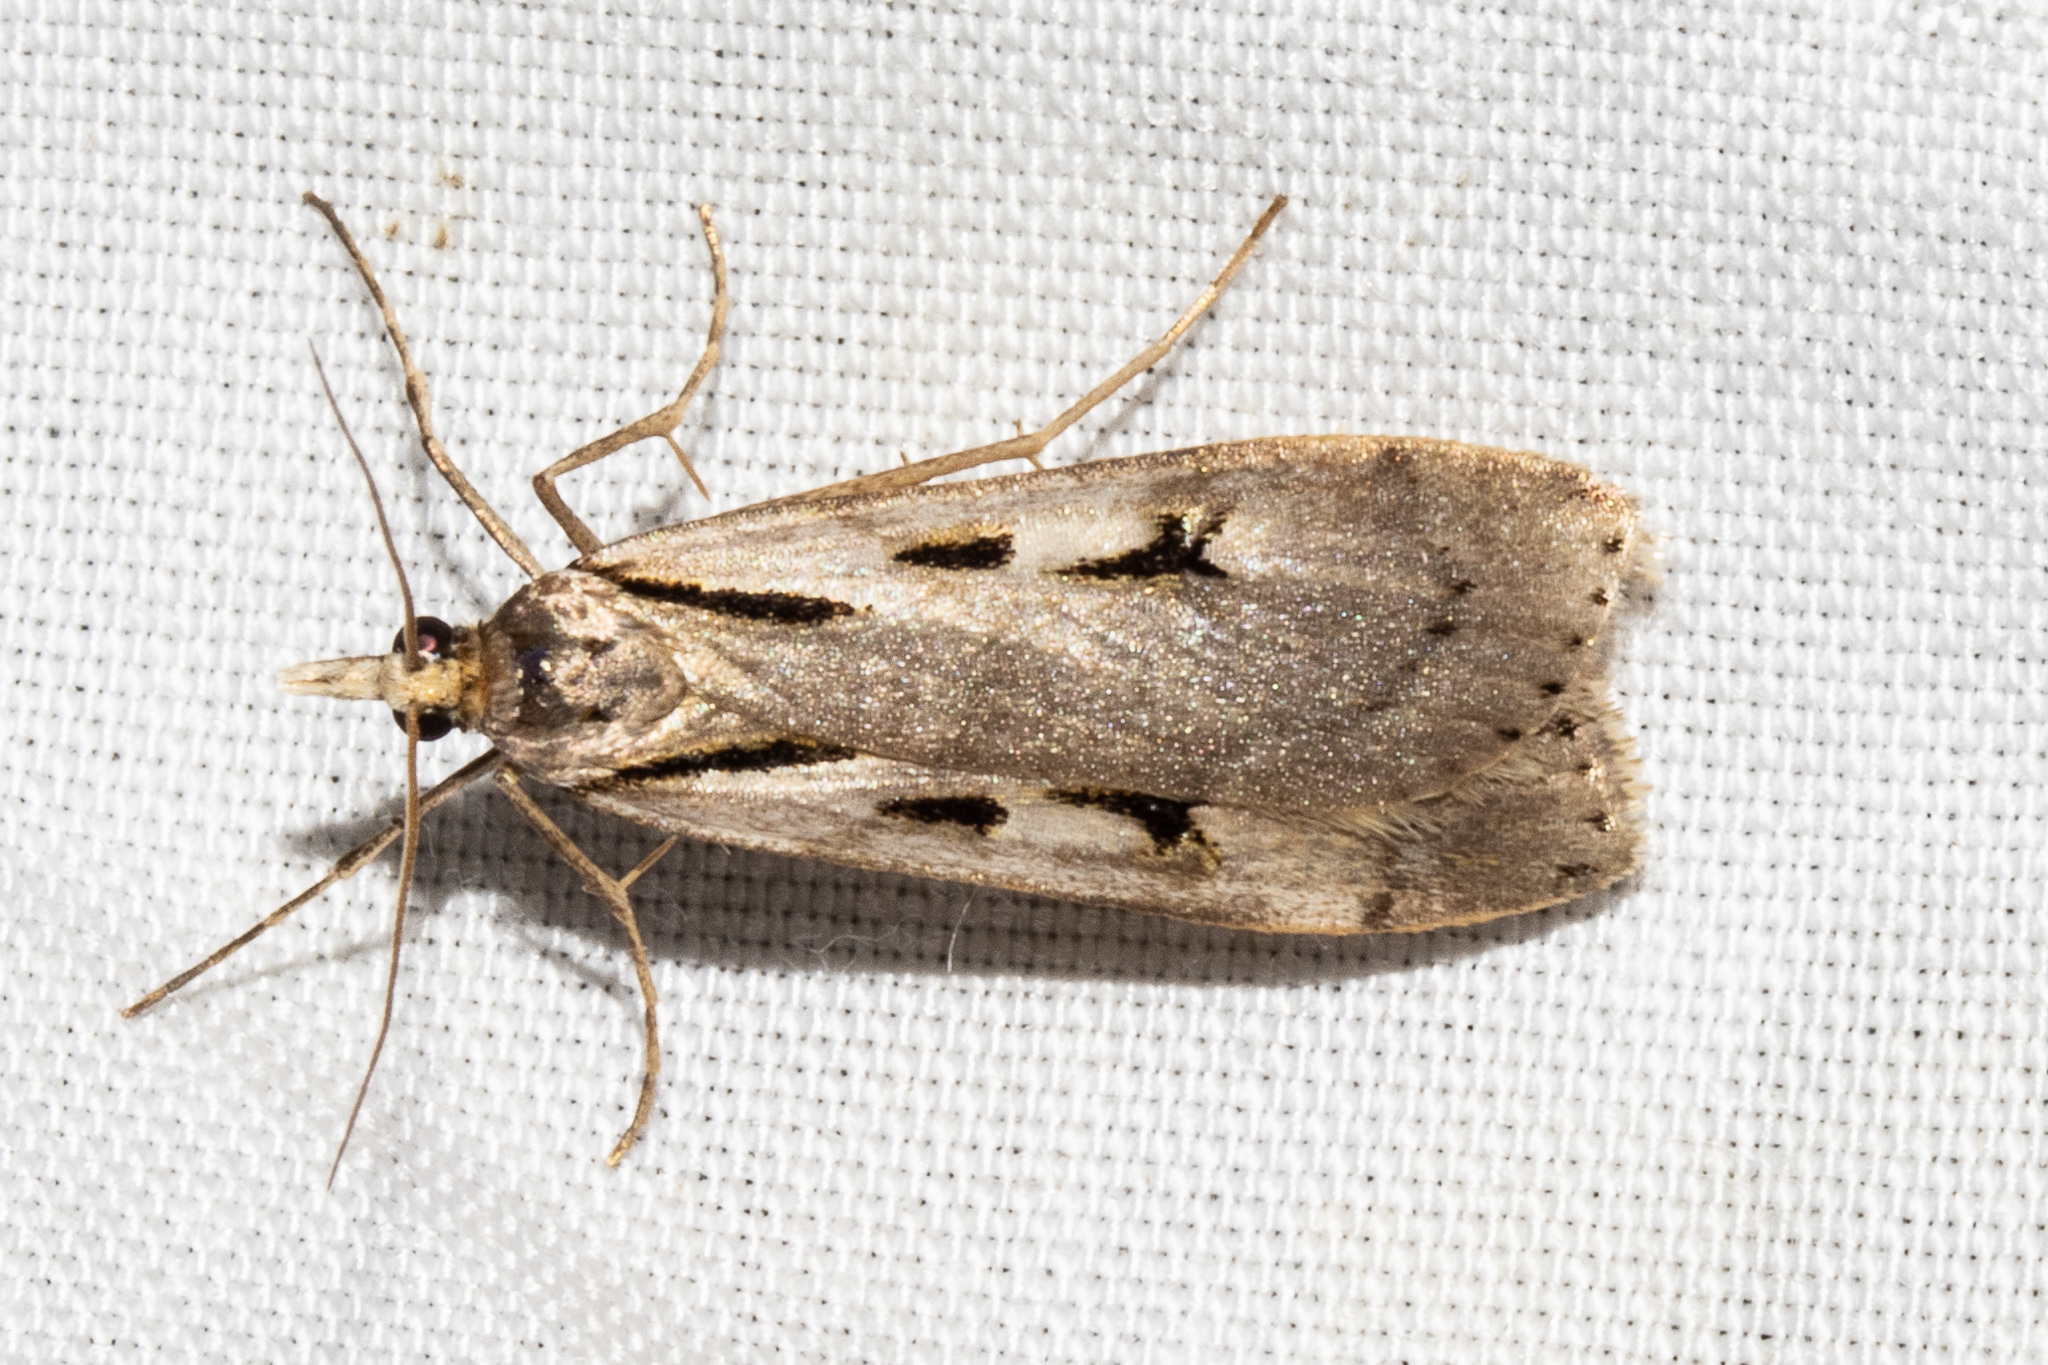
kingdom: Animalia
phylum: Arthropoda
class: Insecta
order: Lepidoptera
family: Crambidae
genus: Scoparia
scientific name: Scoparia panopla
